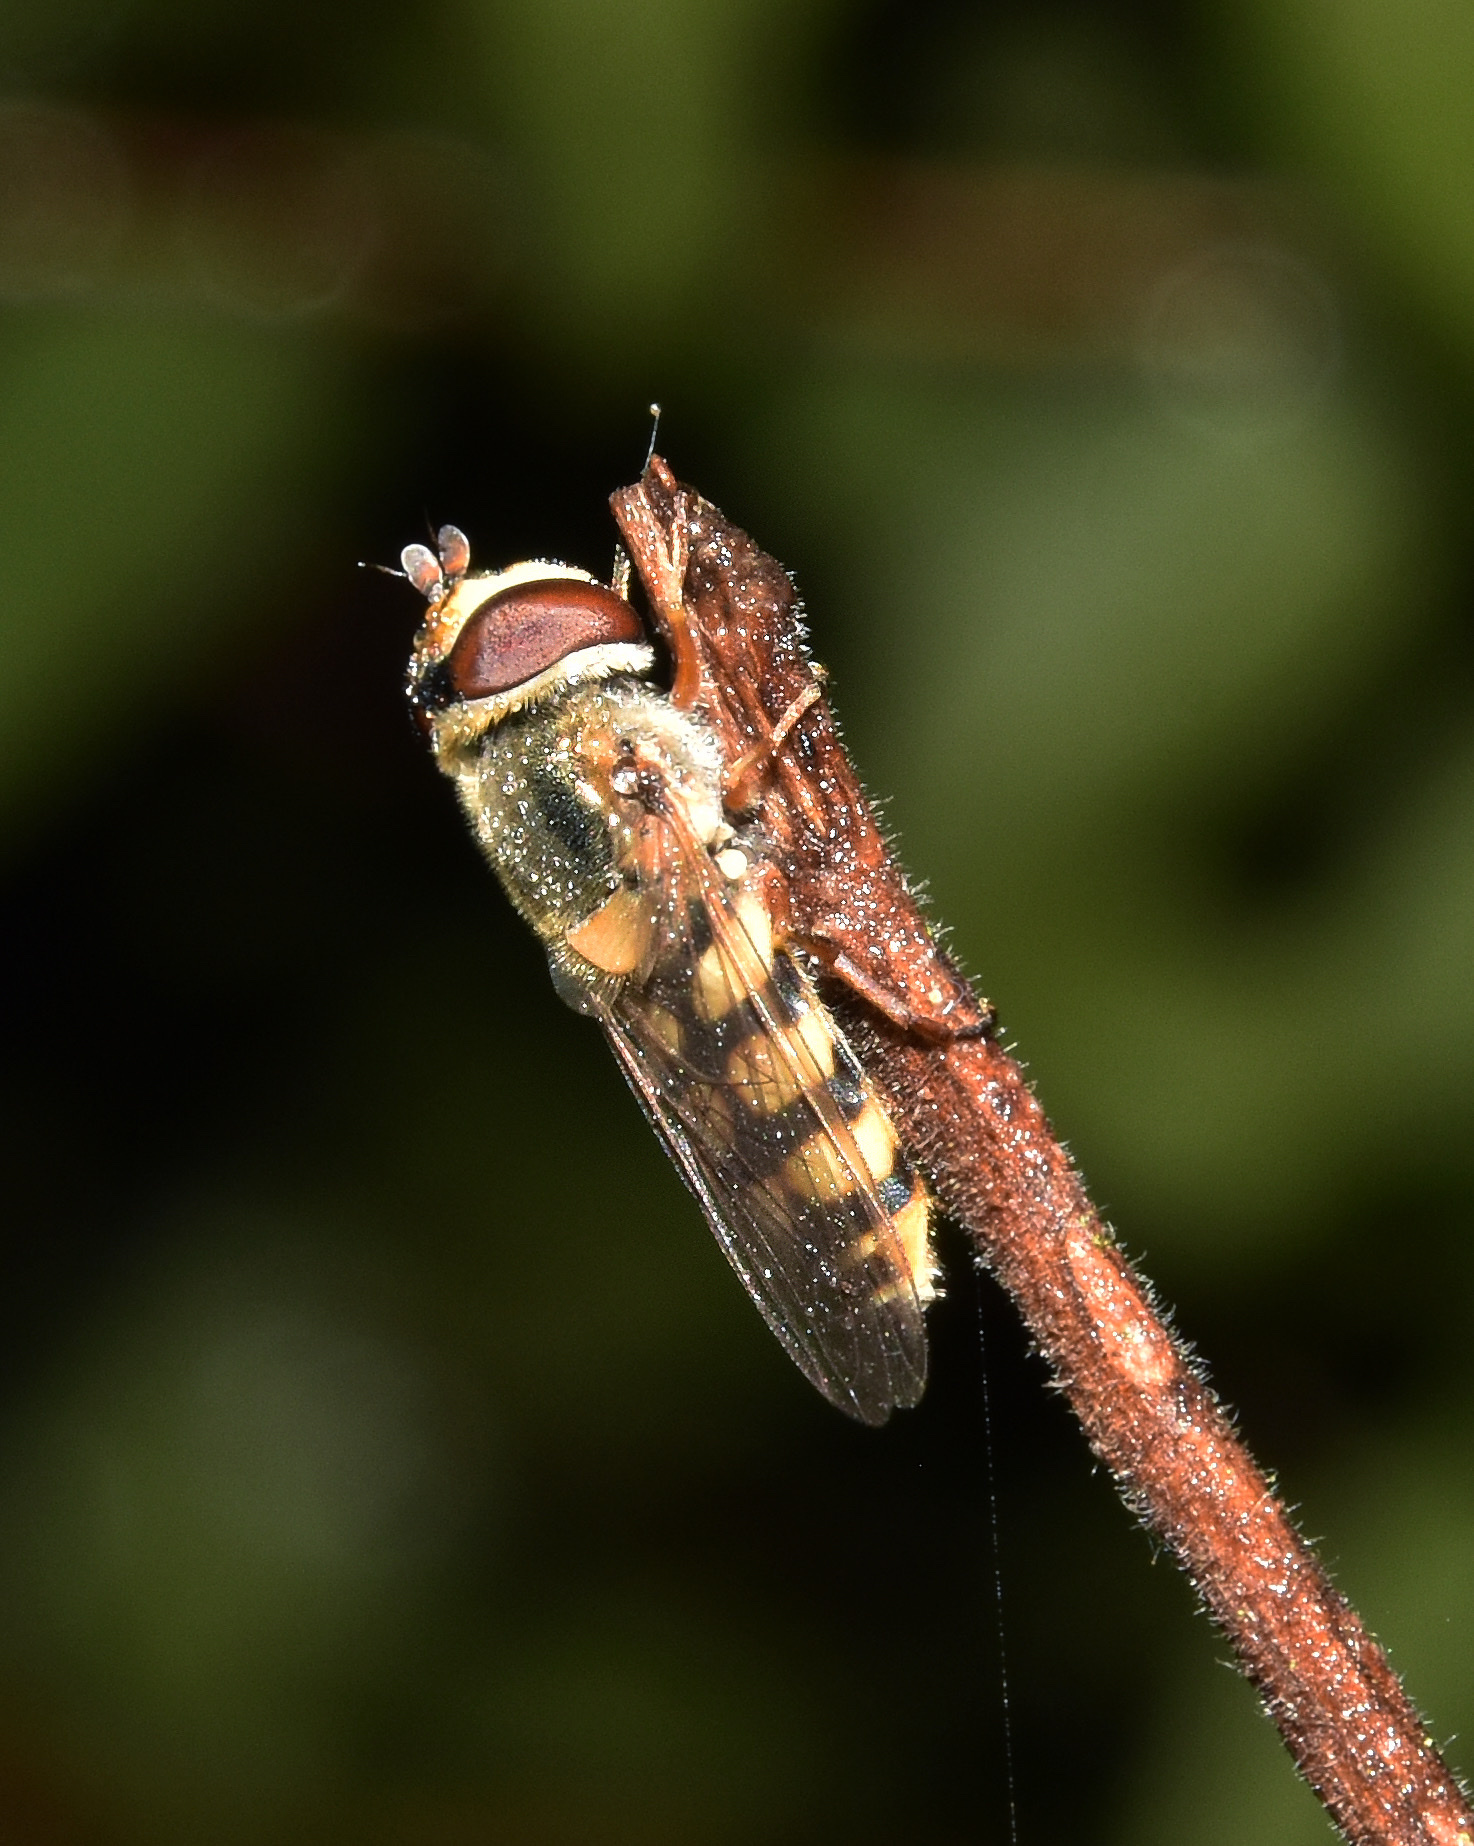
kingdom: Animalia
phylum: Arthropoda
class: Insecta
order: Diptera
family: Syrphidae
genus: Eupeodes
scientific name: Eupeodes corollae
